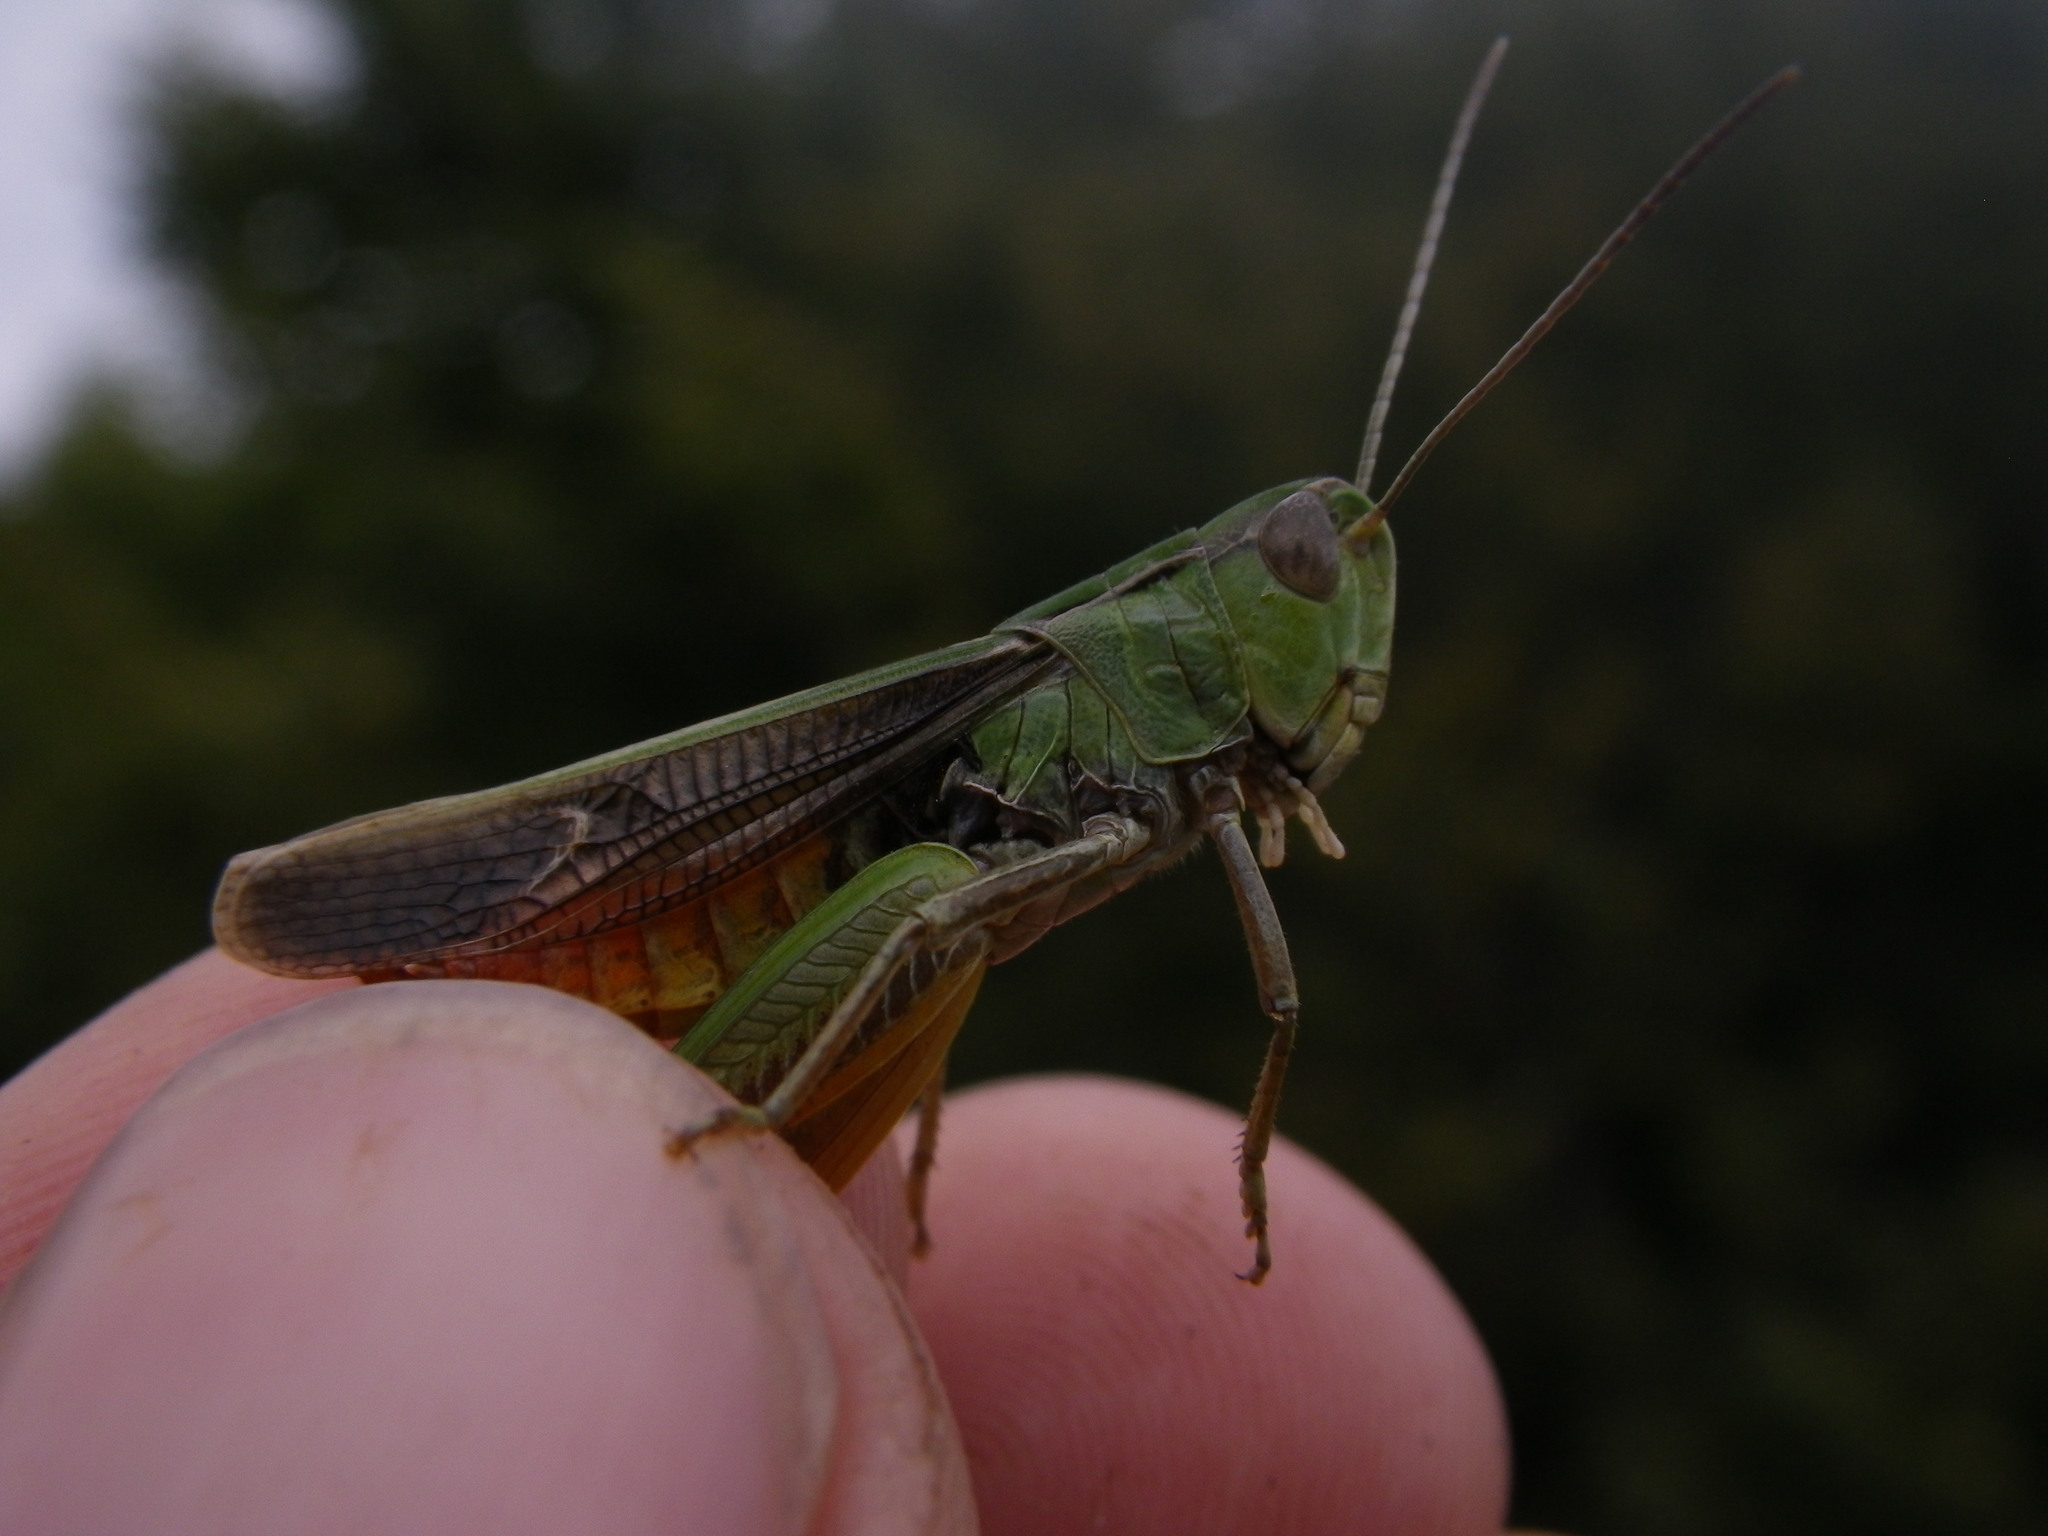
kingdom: Animalia
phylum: Arthropoda
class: Insecta
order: Orthoptera
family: Acrididae
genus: Stenobothrus
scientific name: Stenobothrus lineatus
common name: Stripe-winged grasshopper
